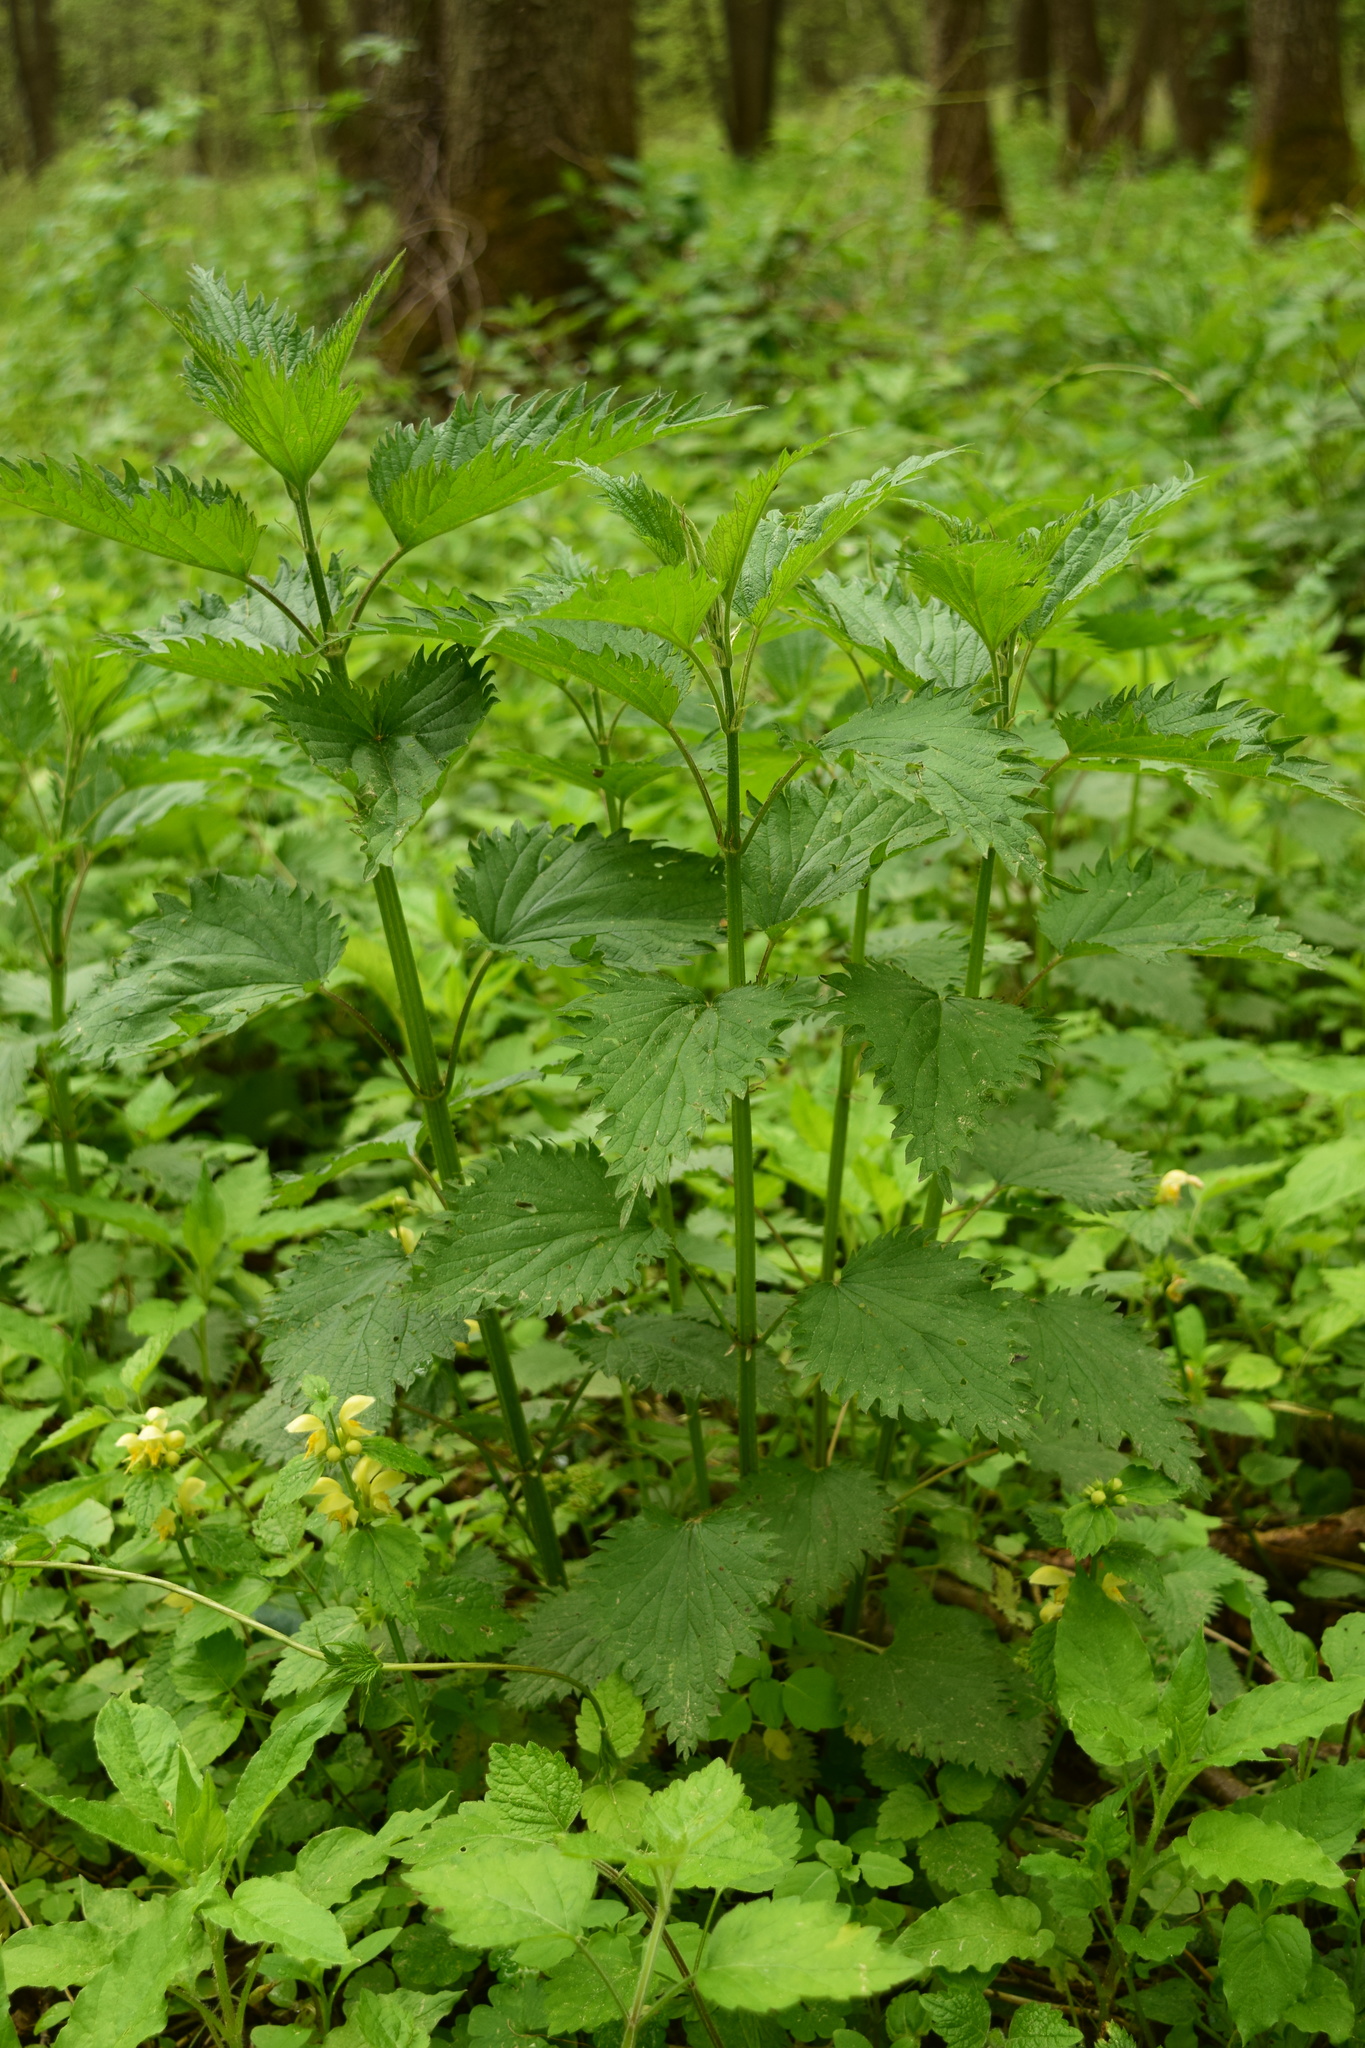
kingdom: Plantae
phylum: Tracheophyta
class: Magnoliopsida
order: Rosales
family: Urticaceae
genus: Urtica
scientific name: Urtica dioica
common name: Common nettle
